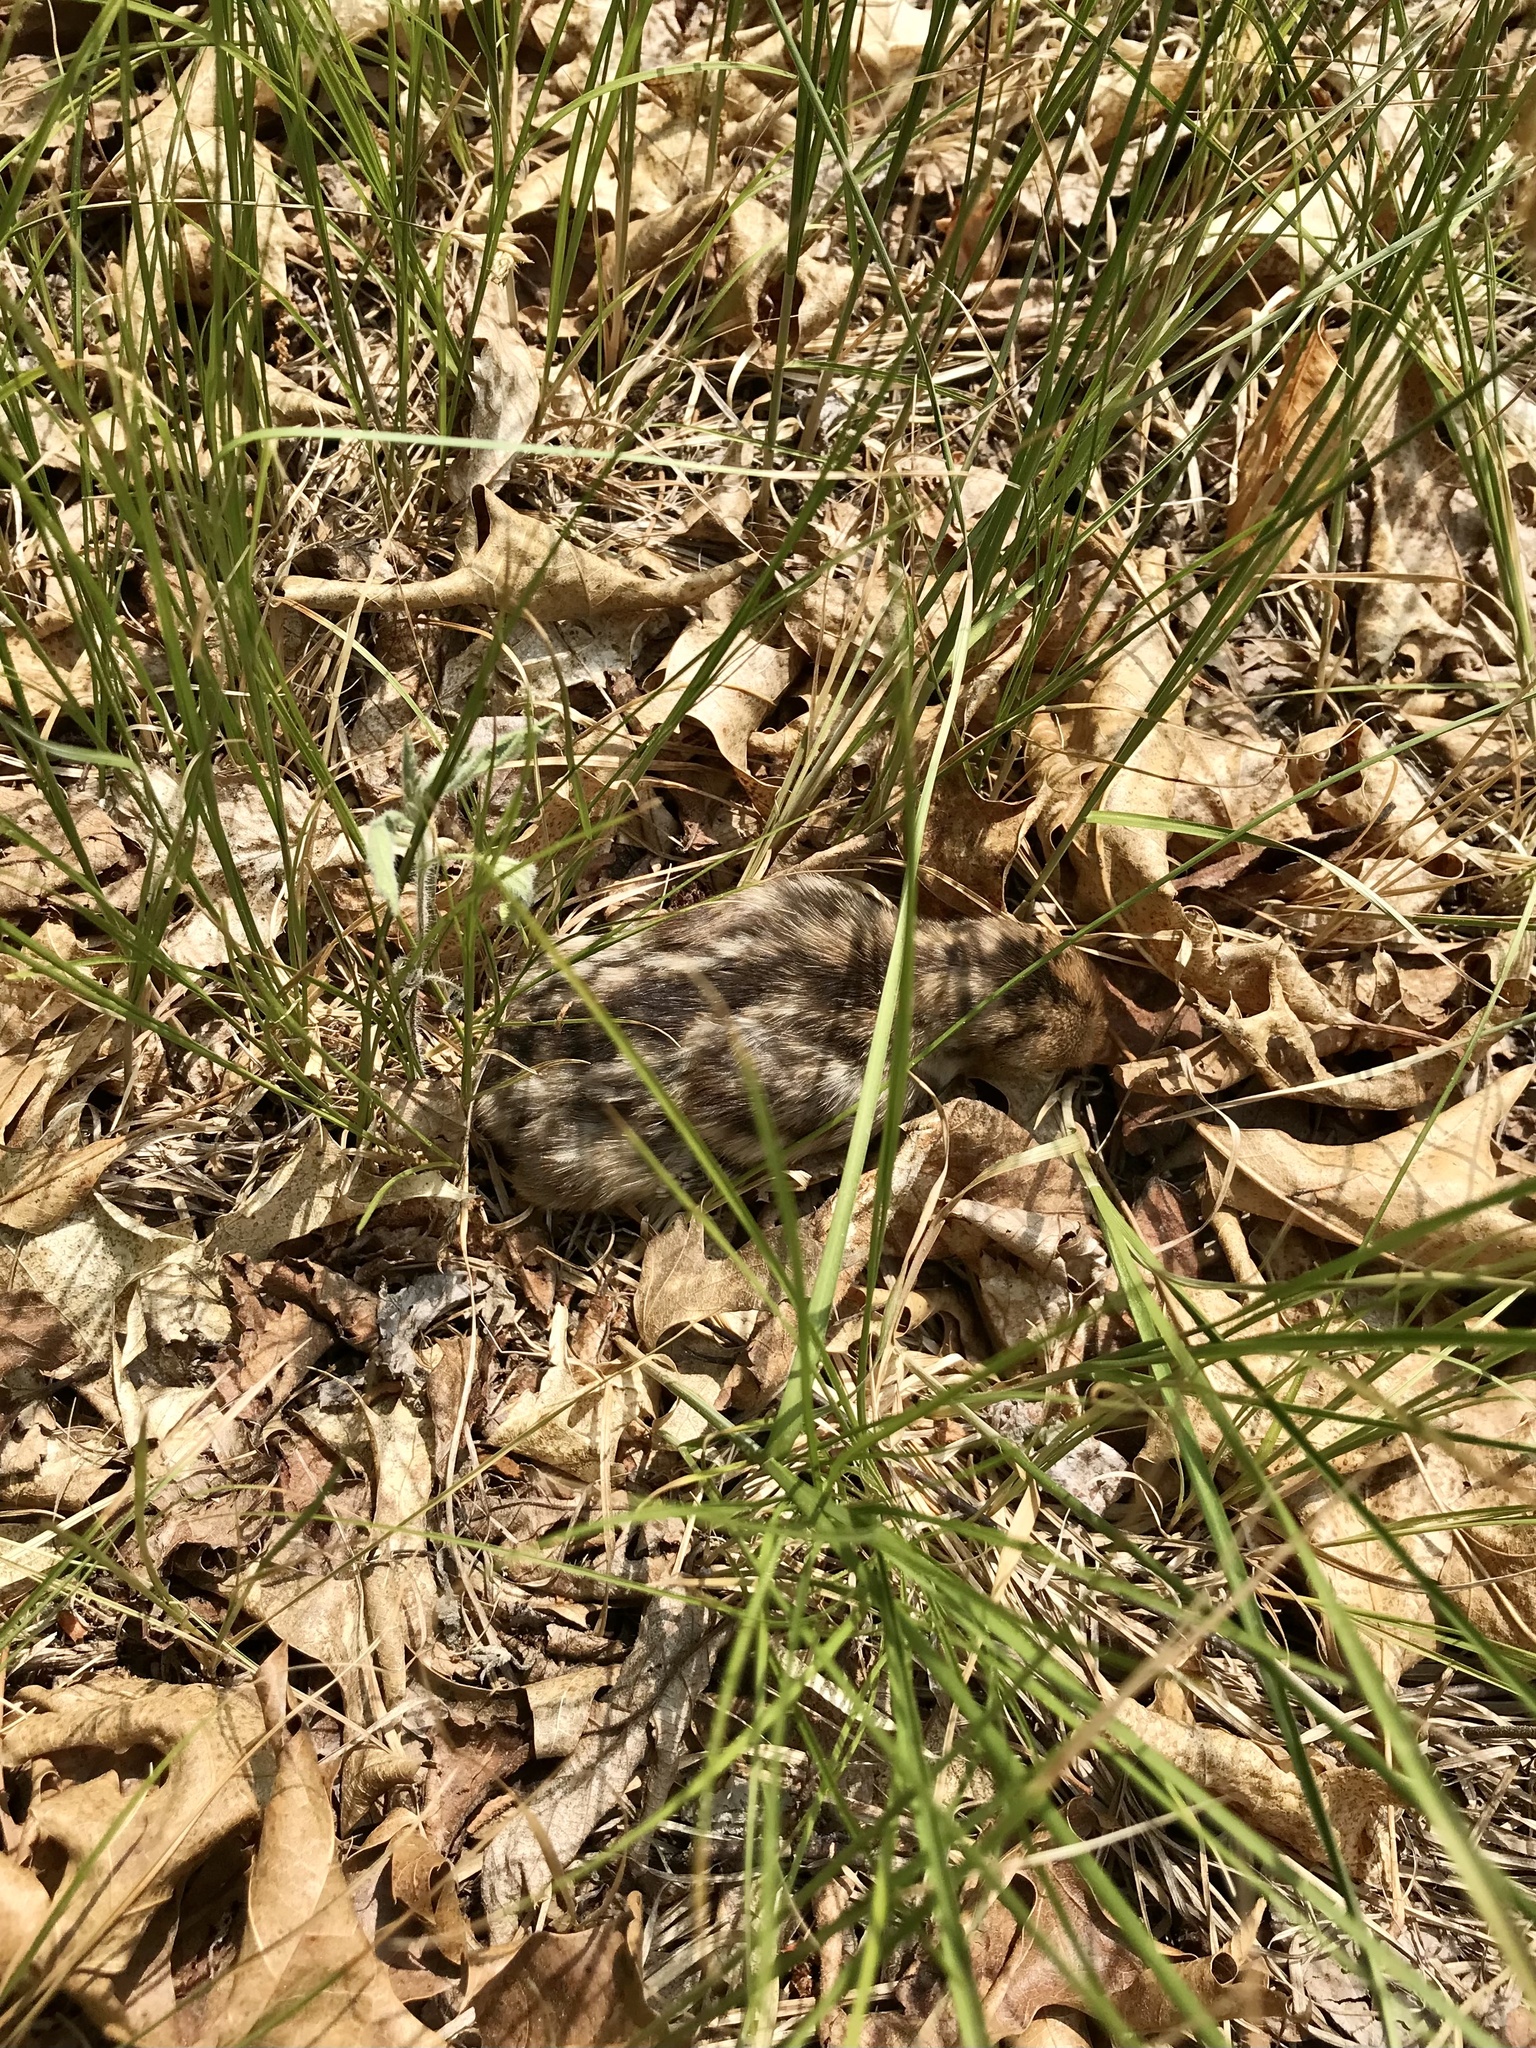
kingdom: Animalia
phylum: Chordata
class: Aves
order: Galliformes
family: Phasianidae
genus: Meleagris
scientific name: Meleagris gallopavo
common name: Wild turkey
